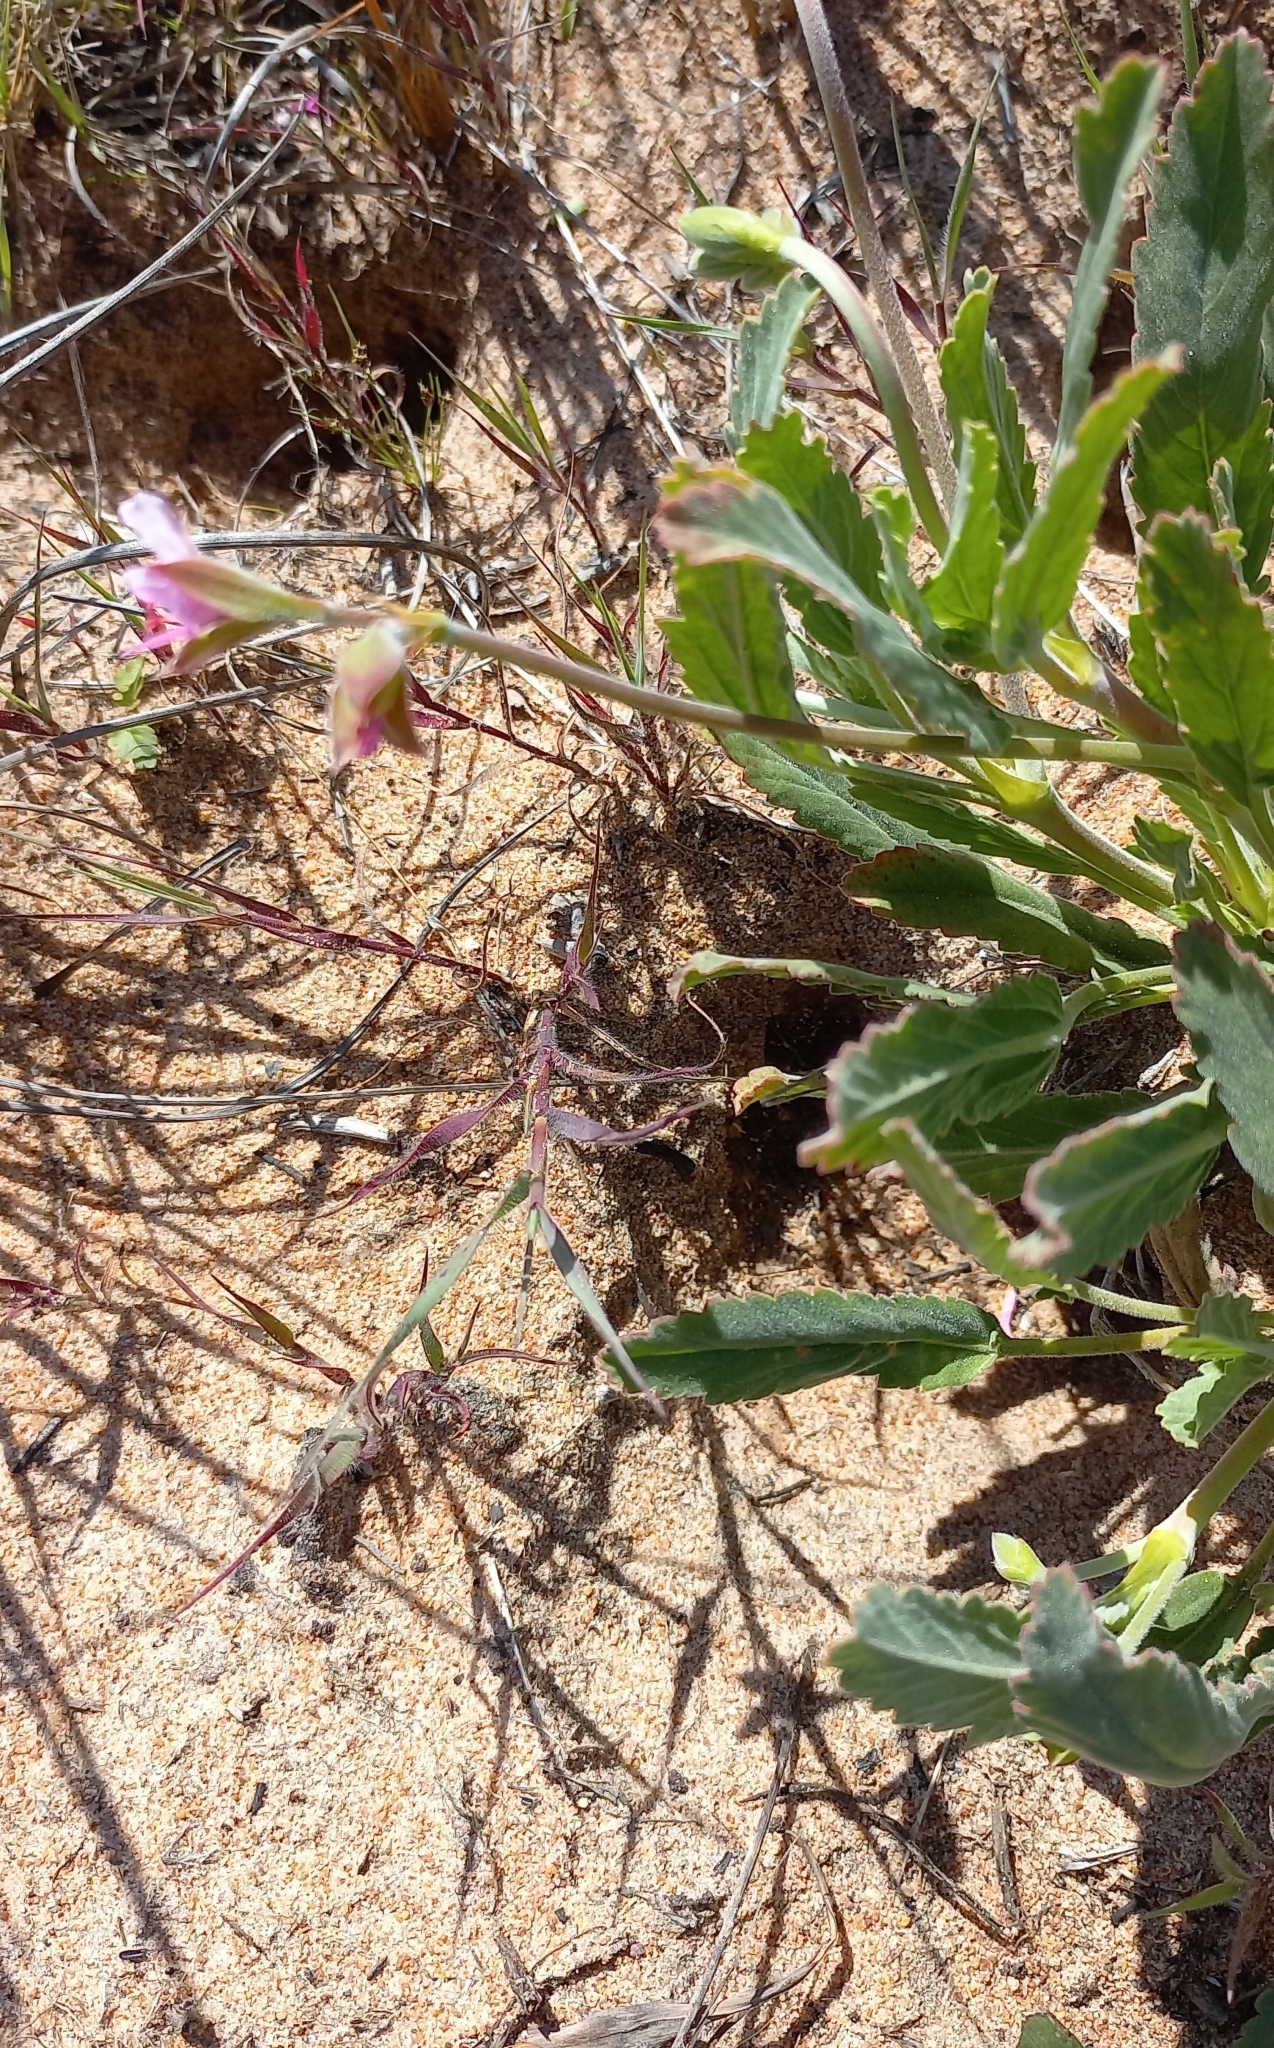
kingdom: Plantae
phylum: Tracheophyta
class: Magnoliopsida
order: Geraniales
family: Geraniaceae
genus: Pelargonium
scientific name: Pelargonium oenothera
